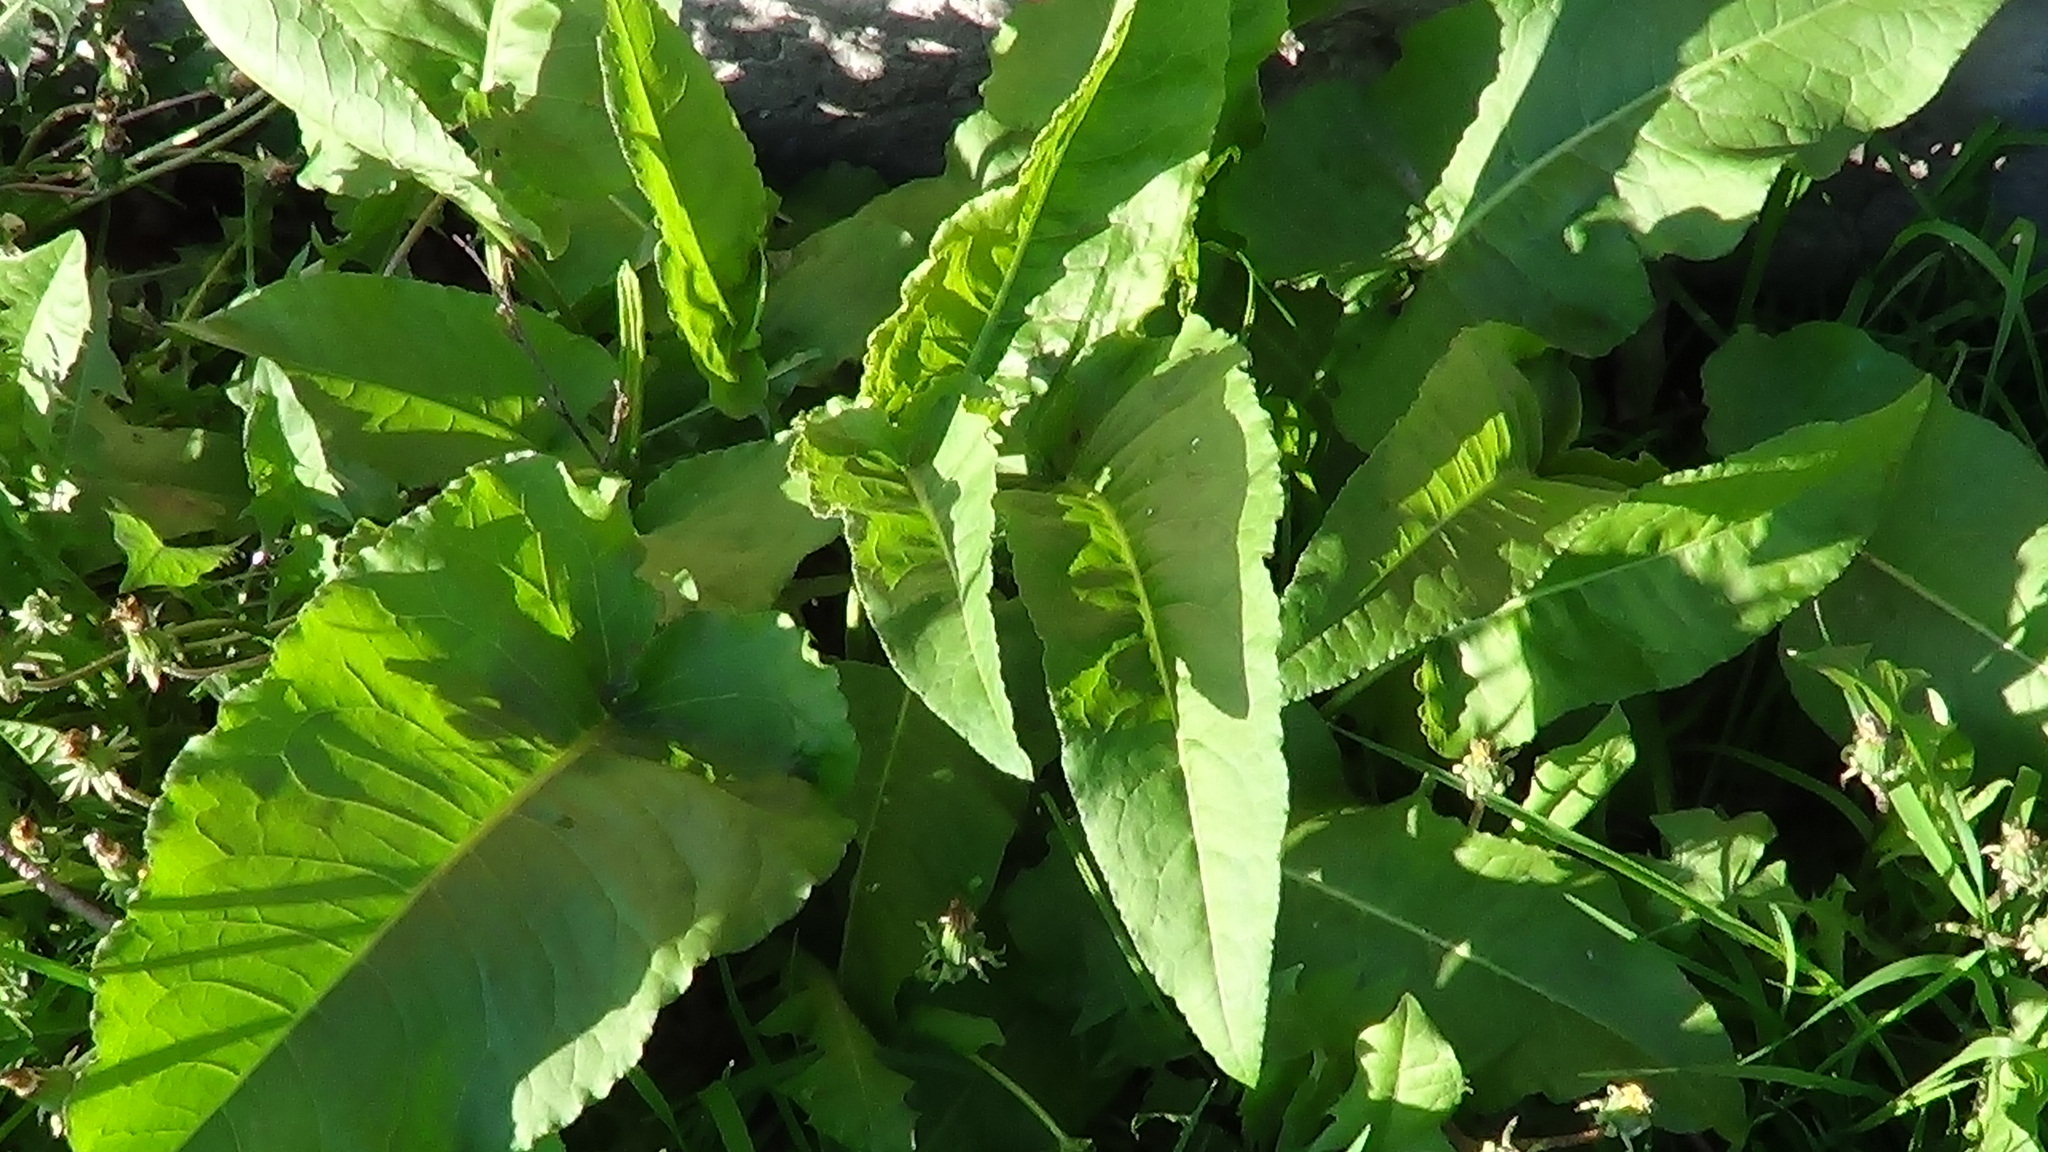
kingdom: Plantae
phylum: Tracheophyta
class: Magnoliopsida
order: Caryophyllales
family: Polygonaceae
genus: Rumex
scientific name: Rumex aquaticus
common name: Scottish dock
